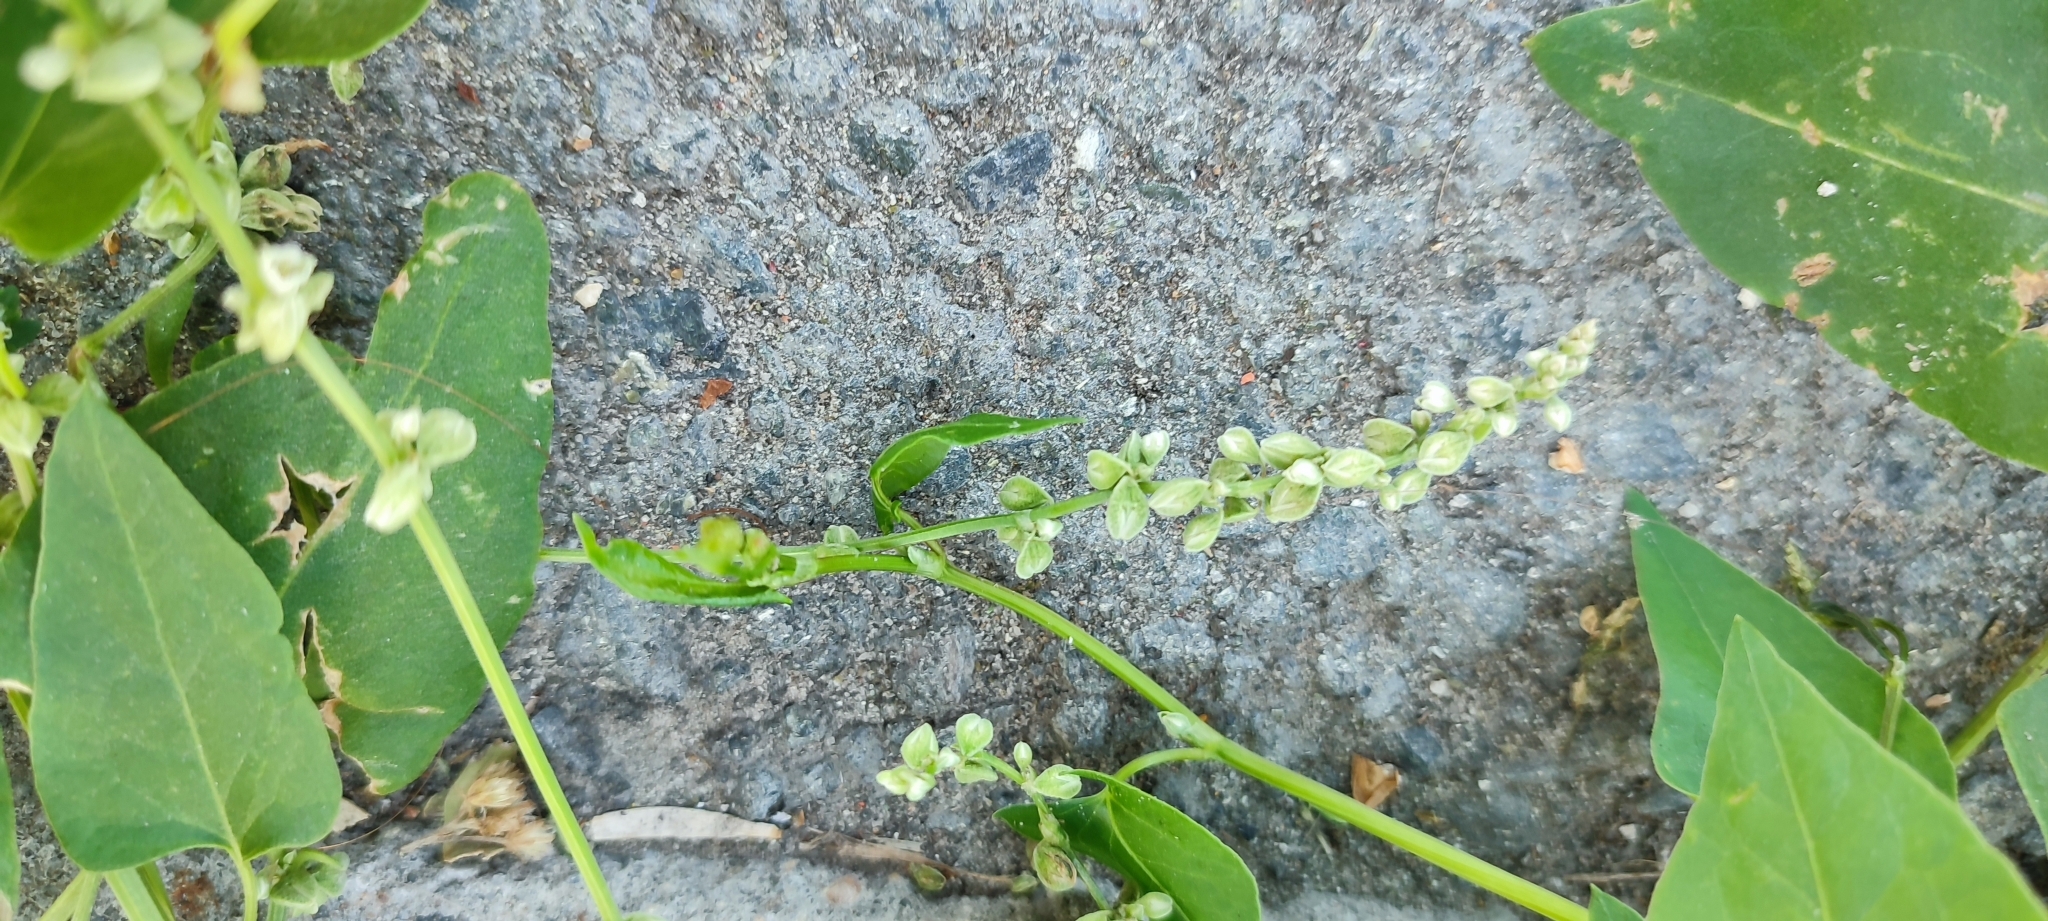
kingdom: Plantae
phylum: Tracheophyta
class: Magnoliopsida
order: Caryophyllales
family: Polygonaceae
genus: Fallopia
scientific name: Fallopia convolvulus
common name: Black bindweed
